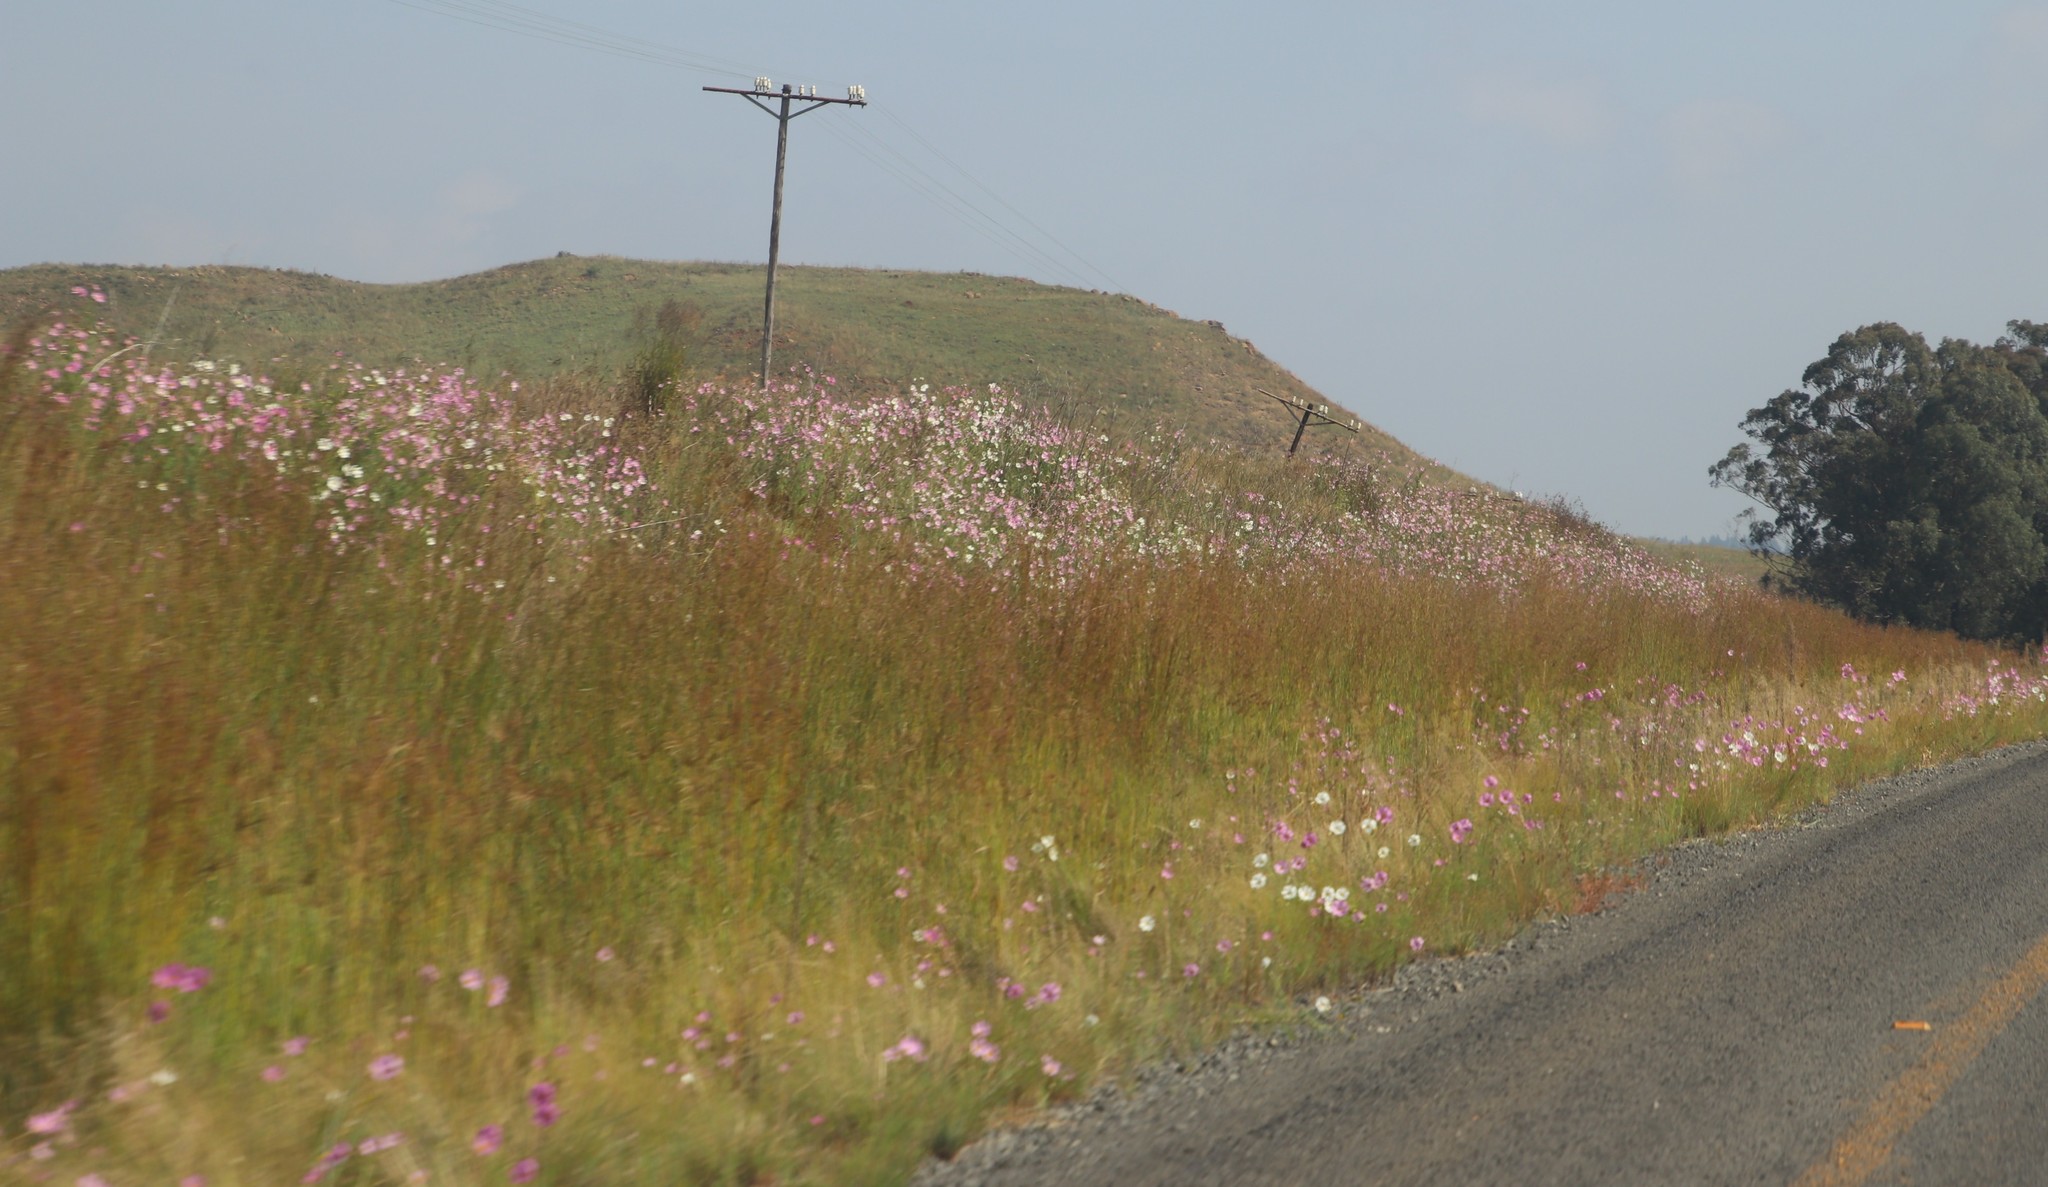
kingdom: Plantae
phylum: Tracheophyta
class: Magnoliopsida
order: Asterales
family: Asteraceae
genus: Cosmos
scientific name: Cosmos bipinnatus
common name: Garden cosmos
